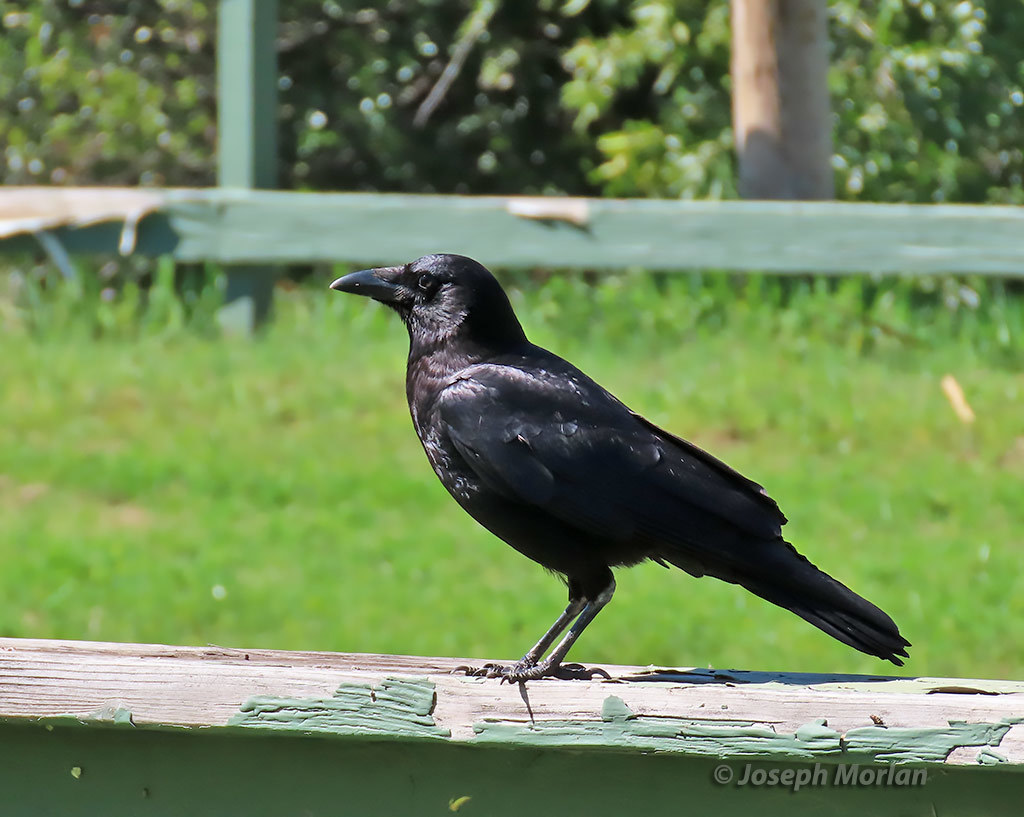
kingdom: Animalia
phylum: Chordata
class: Aves
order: Passeriformes
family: Corvidae
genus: Corvus
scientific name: Corvus brachyrhynchos
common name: American crow
